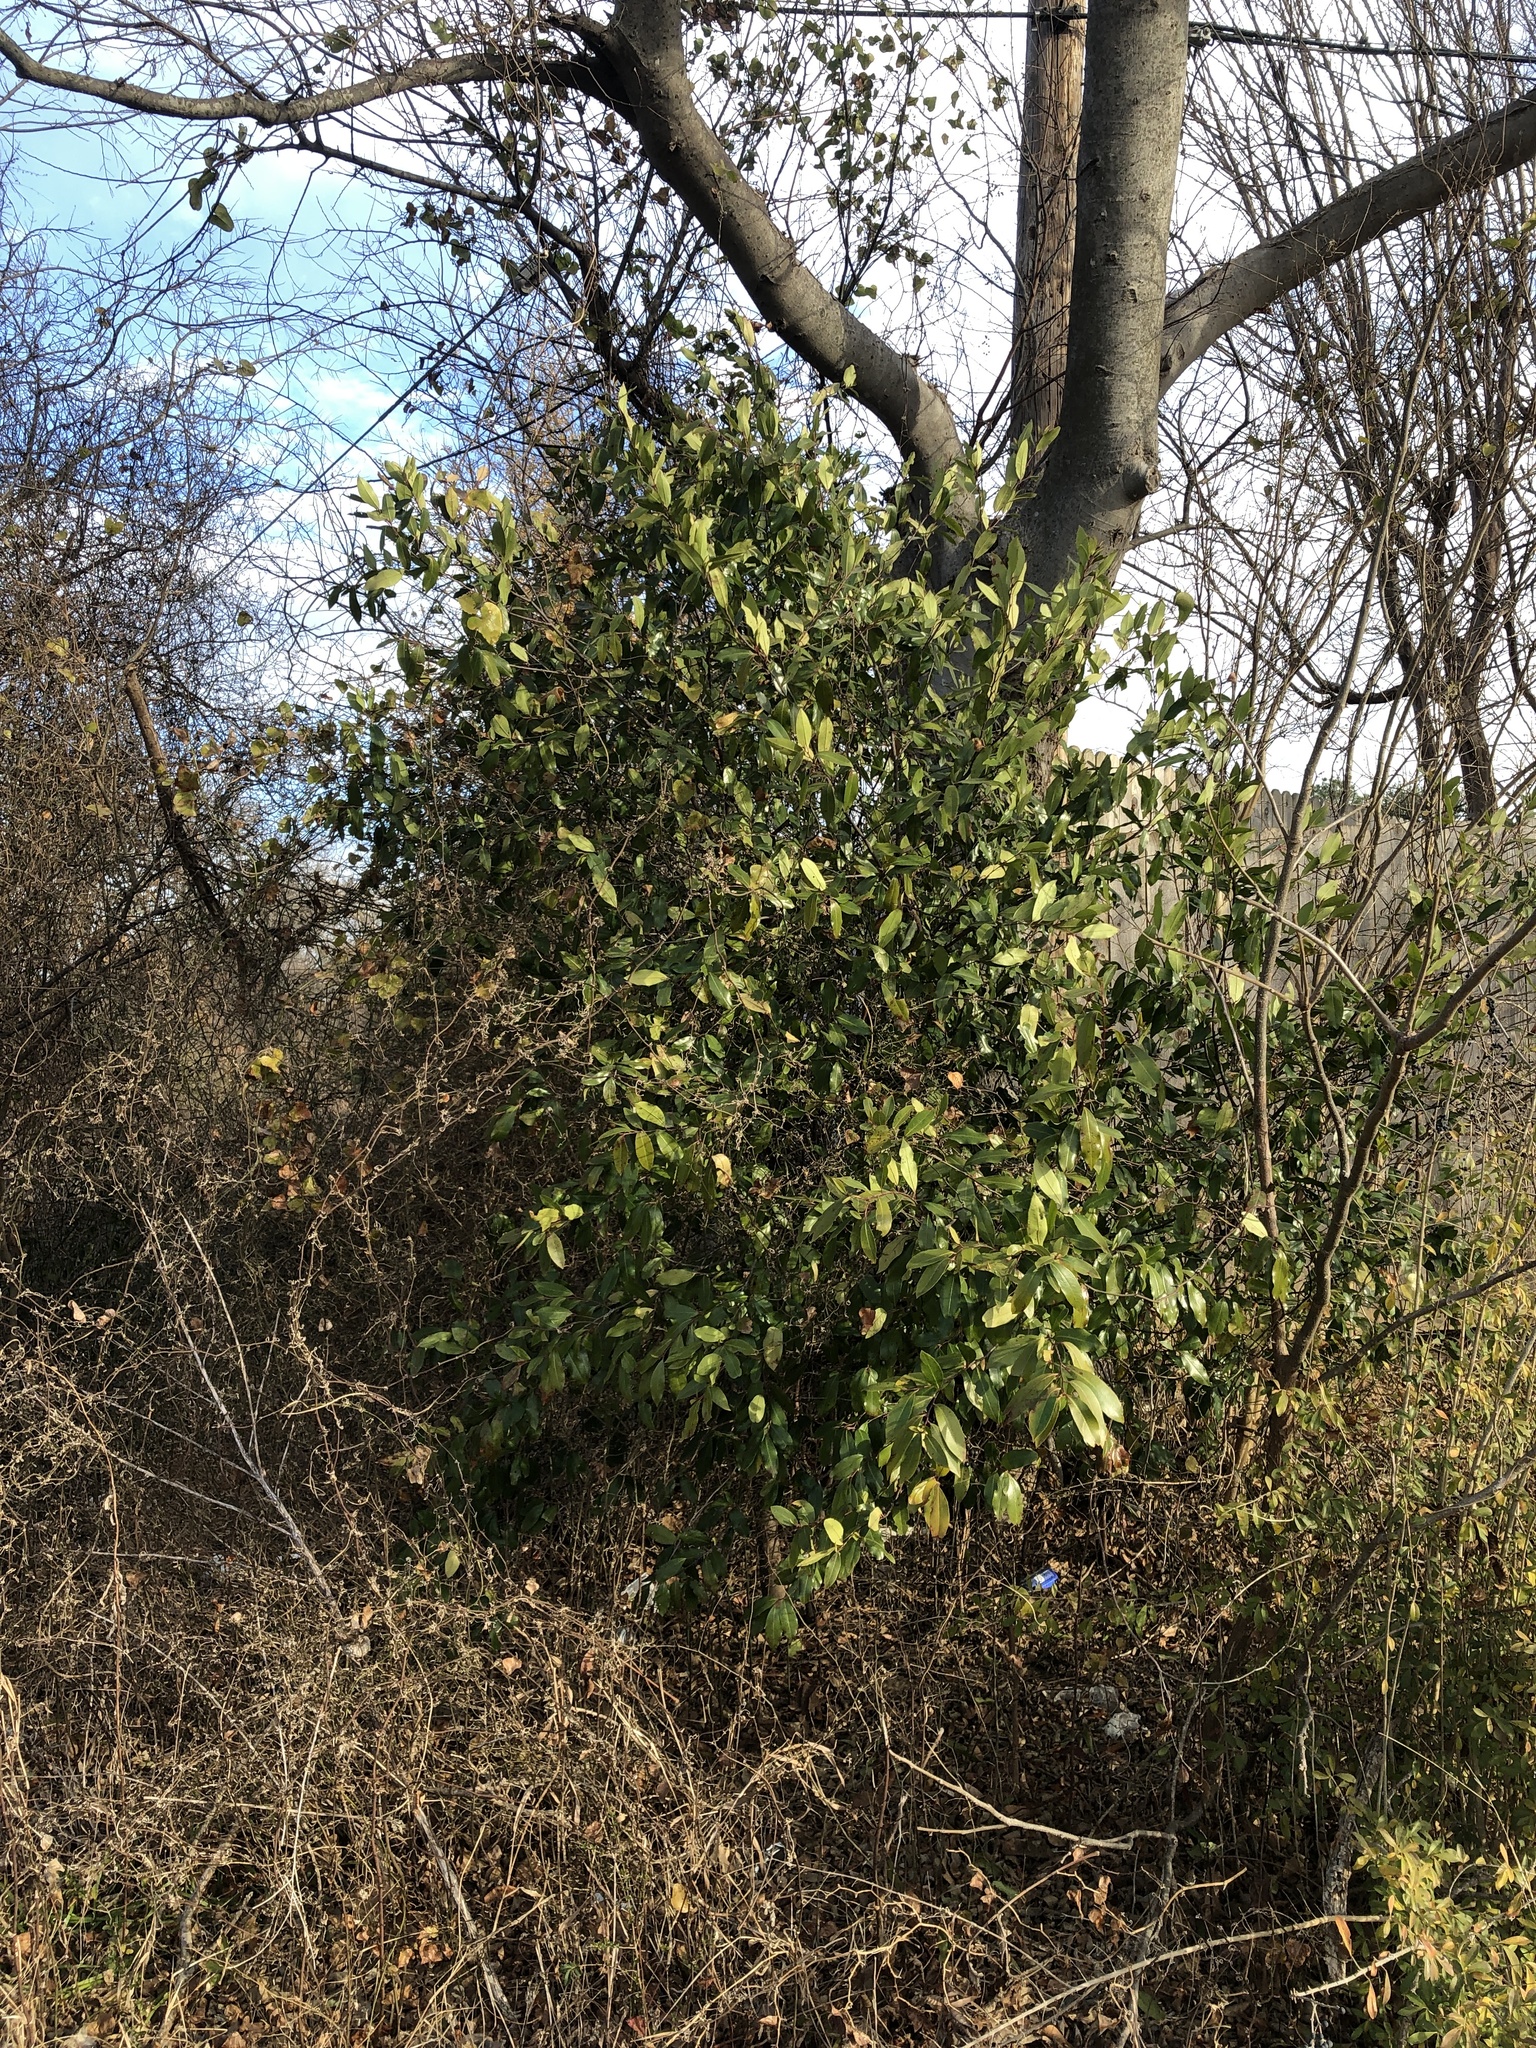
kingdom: Plantae
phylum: Tracheophyta
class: Magnoliopsida
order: Rosales
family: Rosaceae
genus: Prunus
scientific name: Prunus caroliniana
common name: Carolina laurel cherry
